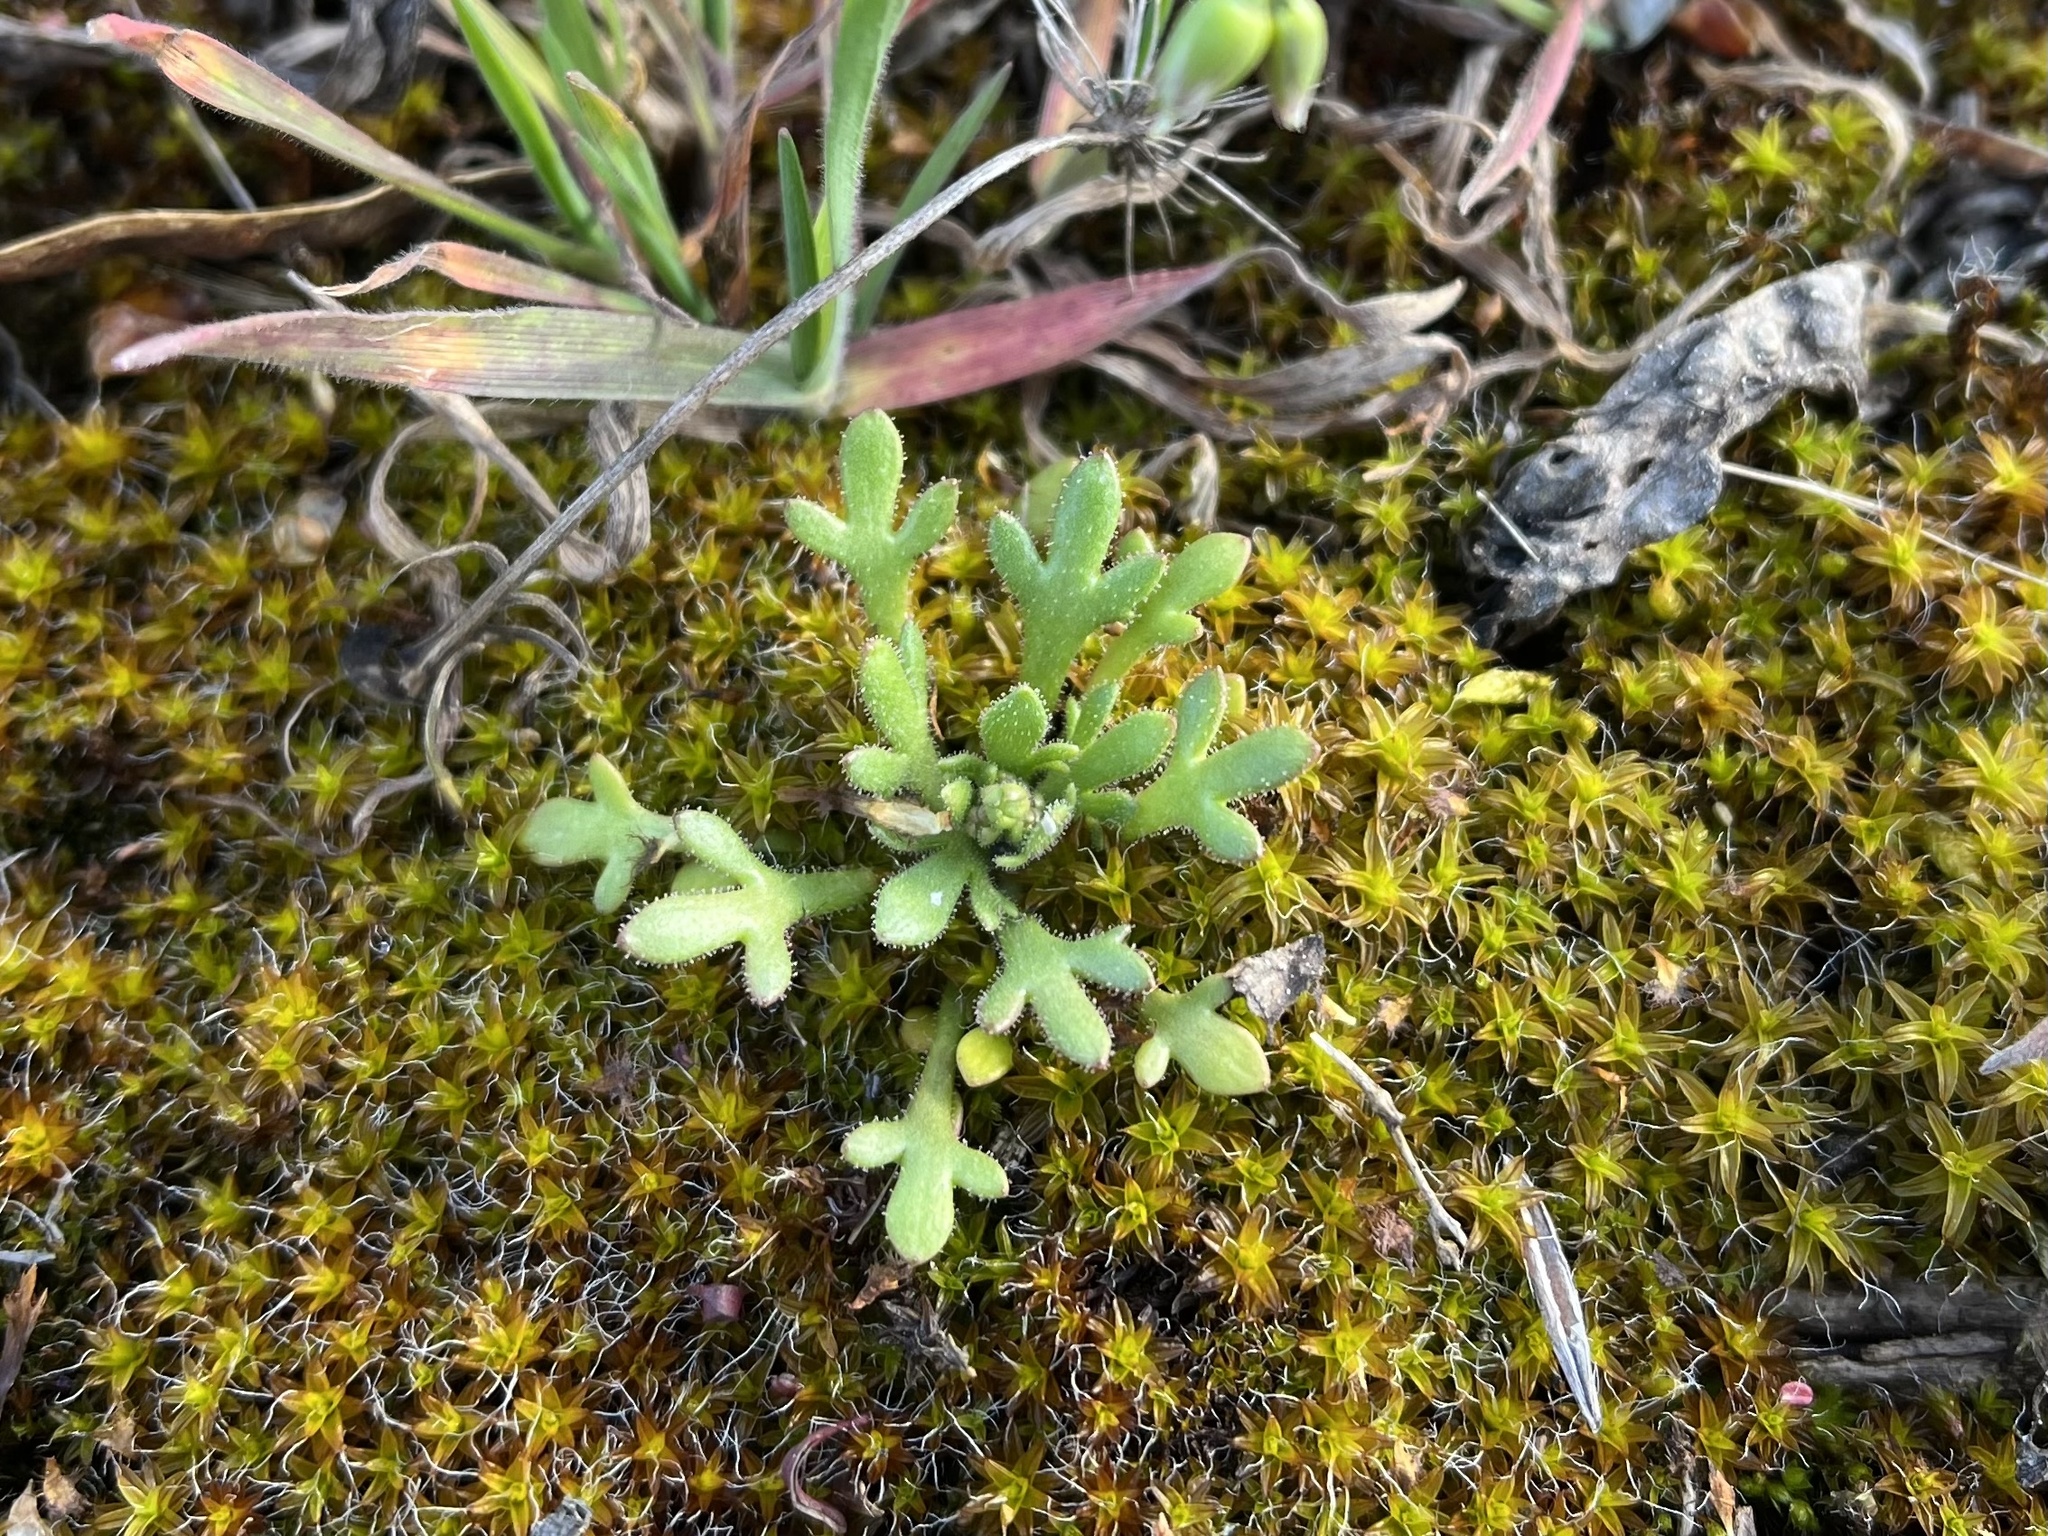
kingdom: Plantae
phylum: Tracheophyta
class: Magnoliopsida
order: Saxifragales
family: Saxifragaceae
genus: Saxifraga
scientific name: Saxifraga tridactylites
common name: Rue-leaved saxifrage
